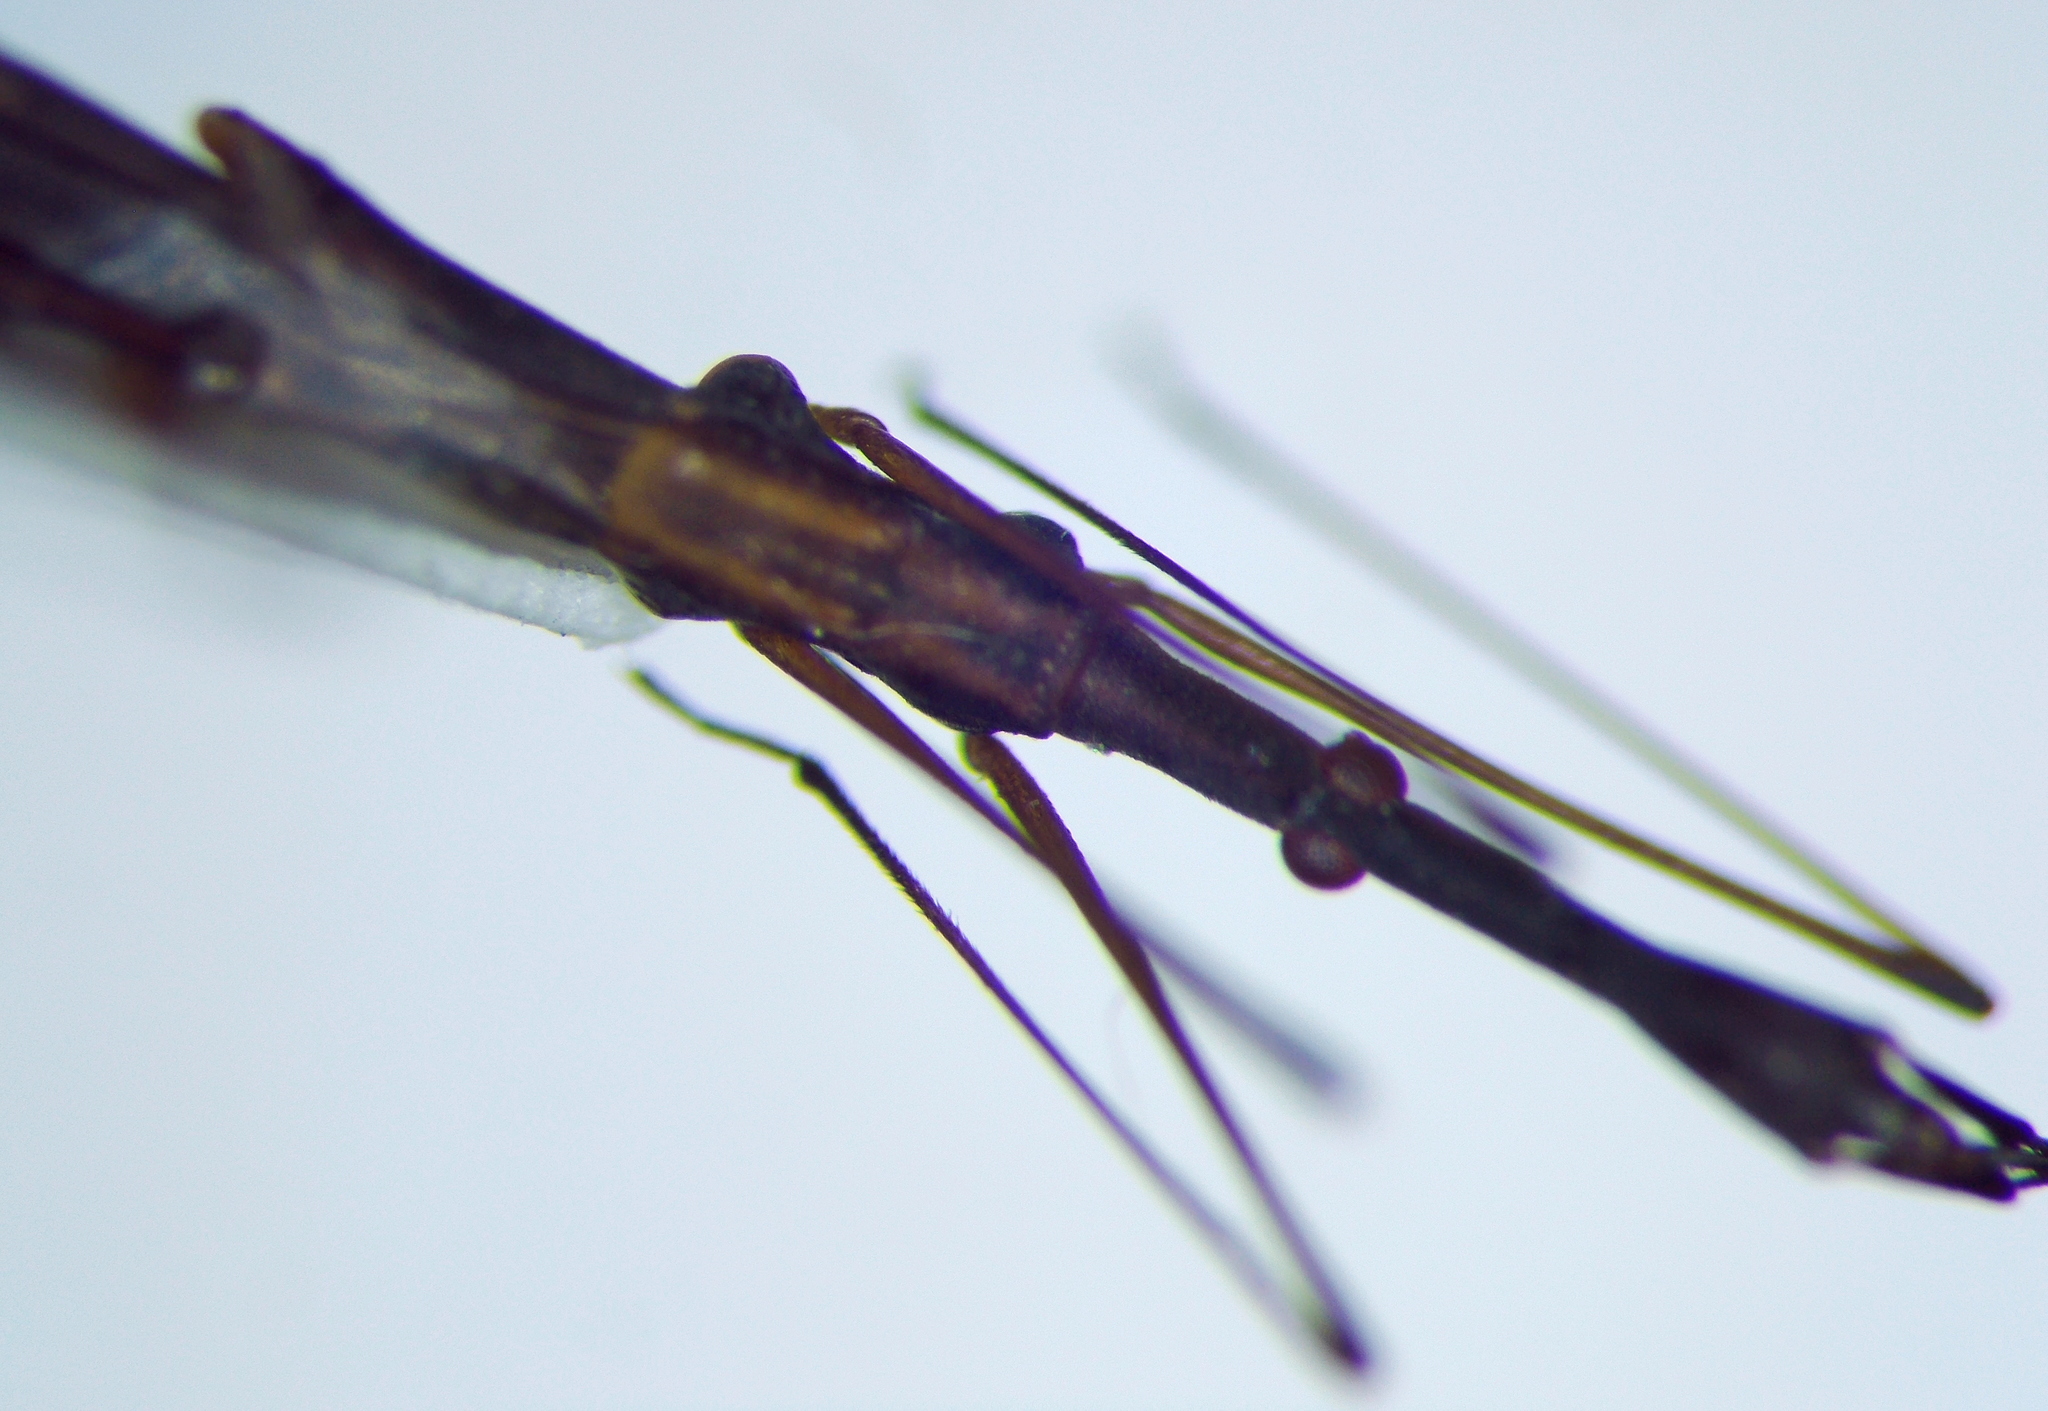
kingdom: Animalia
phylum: Arthropoda
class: Insecta
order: Hemiptera
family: Hydrometridae
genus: Hydrometra
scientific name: Hydrometra stagnorum
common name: Water measurer
